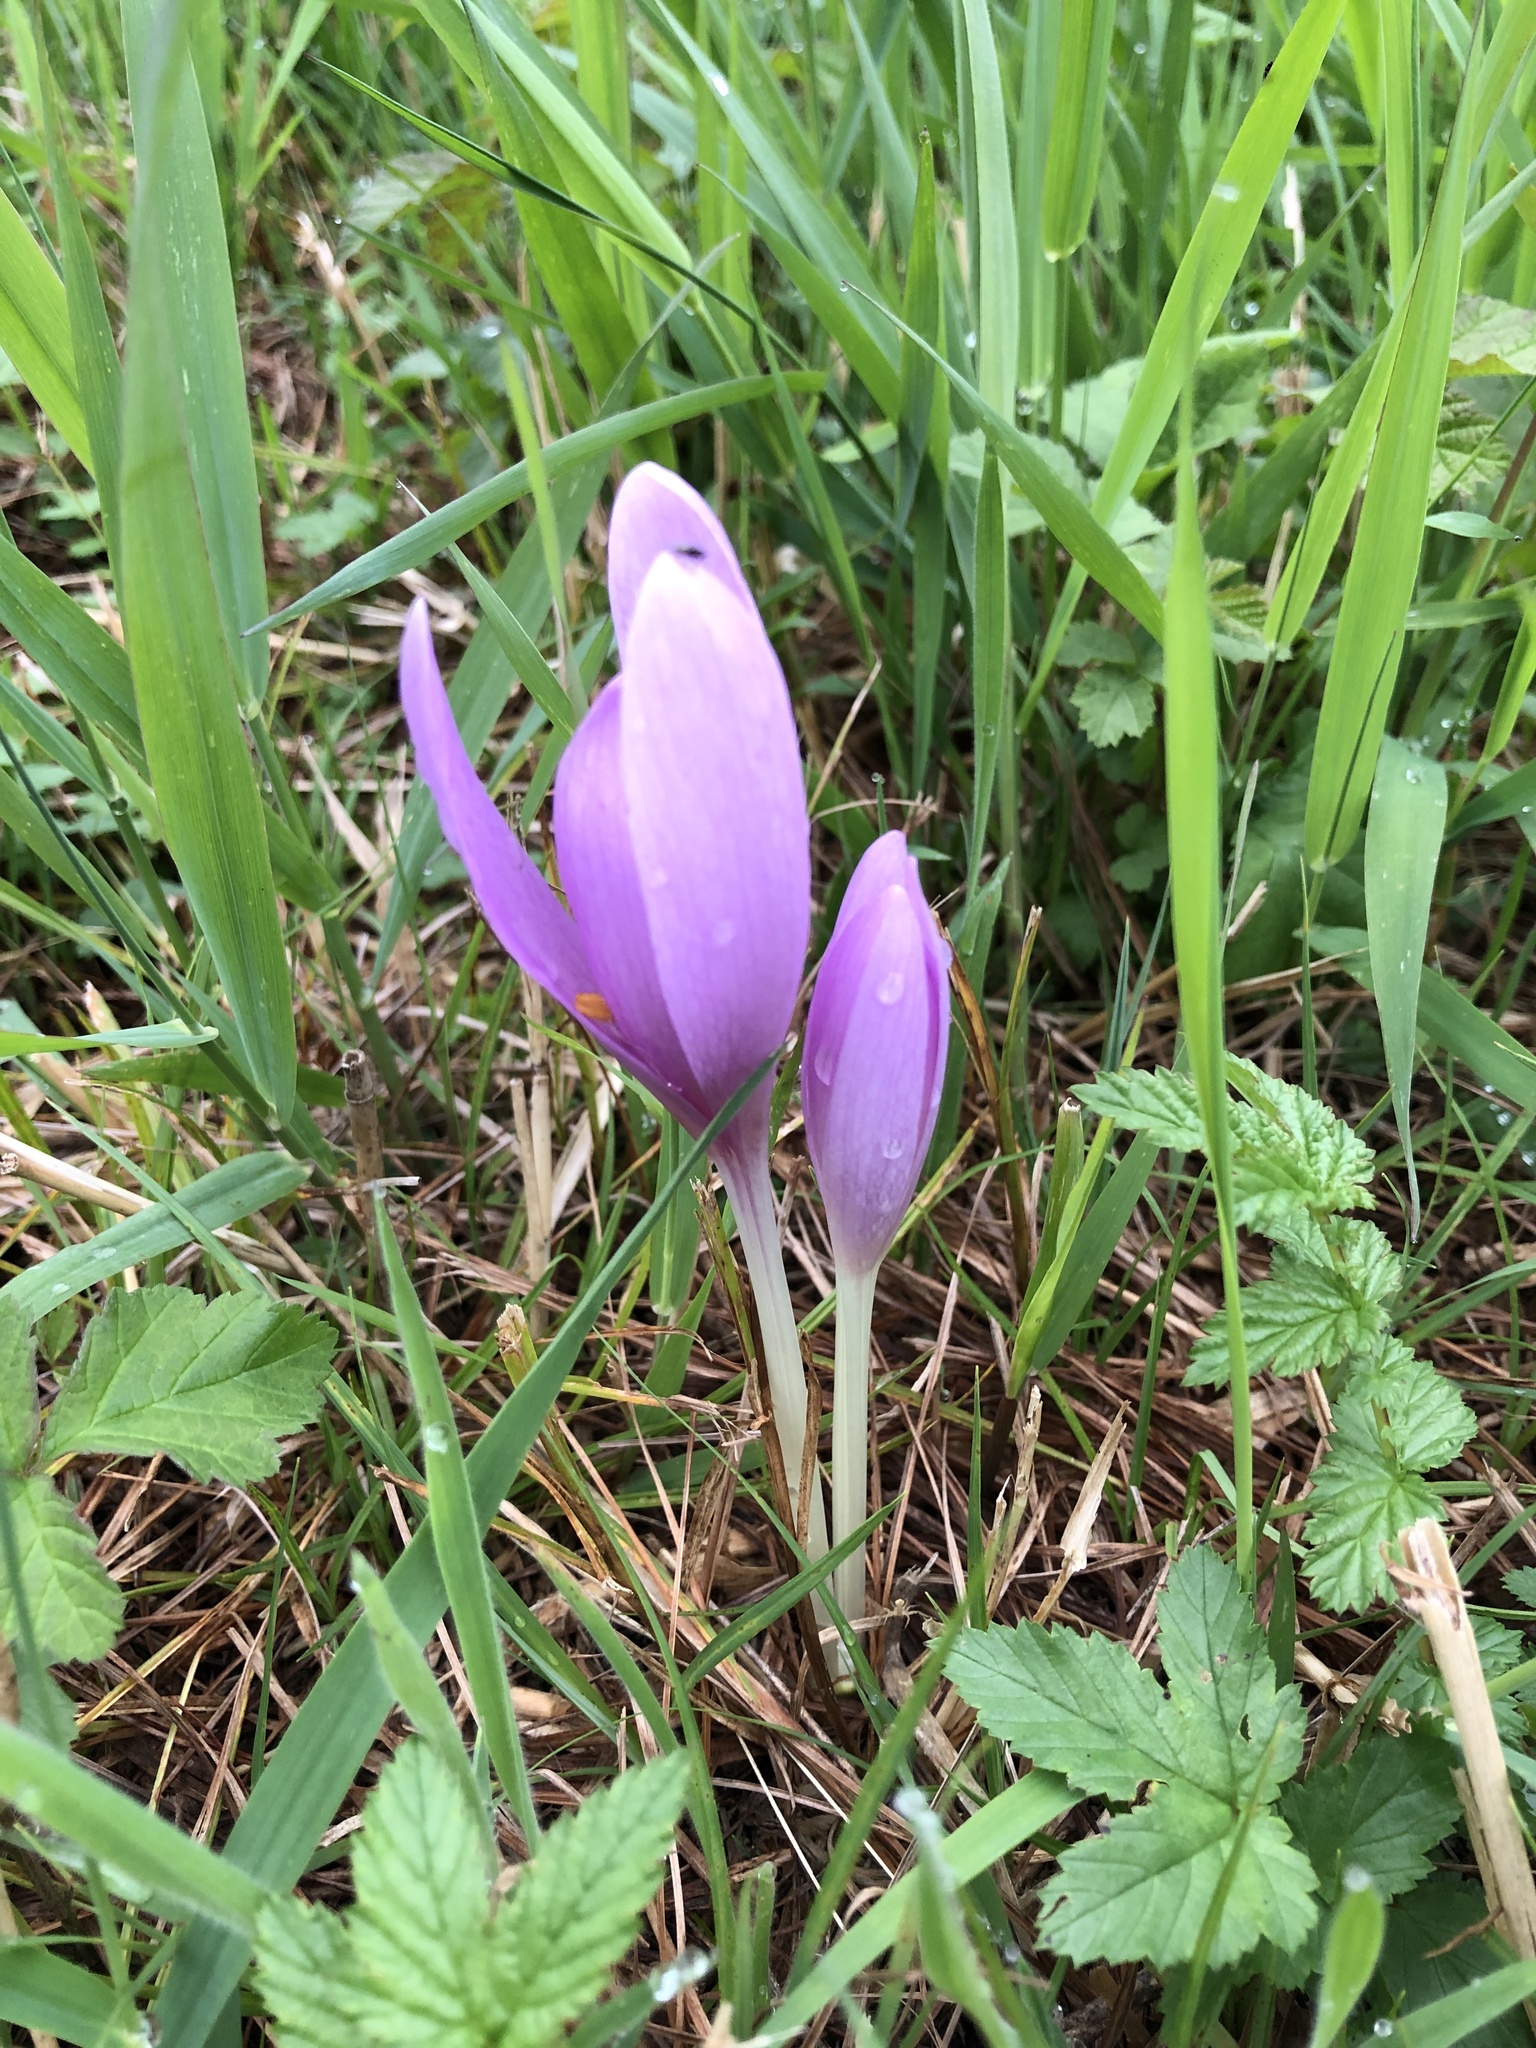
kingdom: Plantae
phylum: Tracheophyta
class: Liliopsida
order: Liliales
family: Colchicaceae
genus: Colchicum
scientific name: Colchicum autumnale
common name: Autumn crocus
